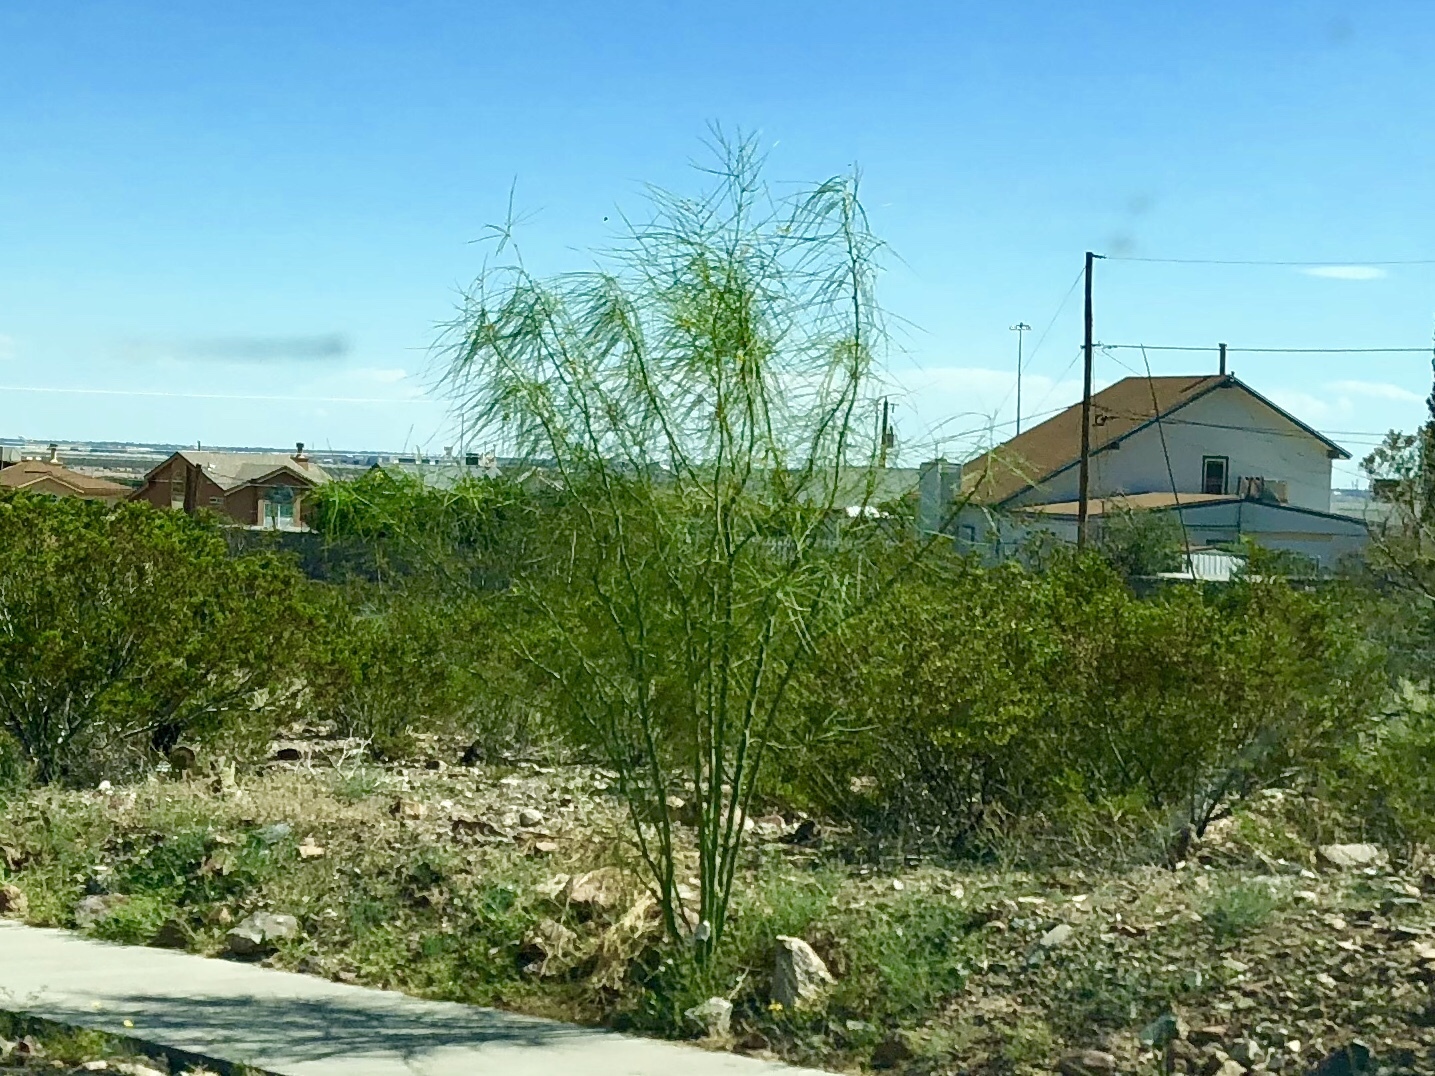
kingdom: Plantae
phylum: Tracheophyta
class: Magnoliopsida
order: Fabales
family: Fabaceae
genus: Parkinsonia
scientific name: Parkinsonia aculeata
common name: Jerusalem thorn
